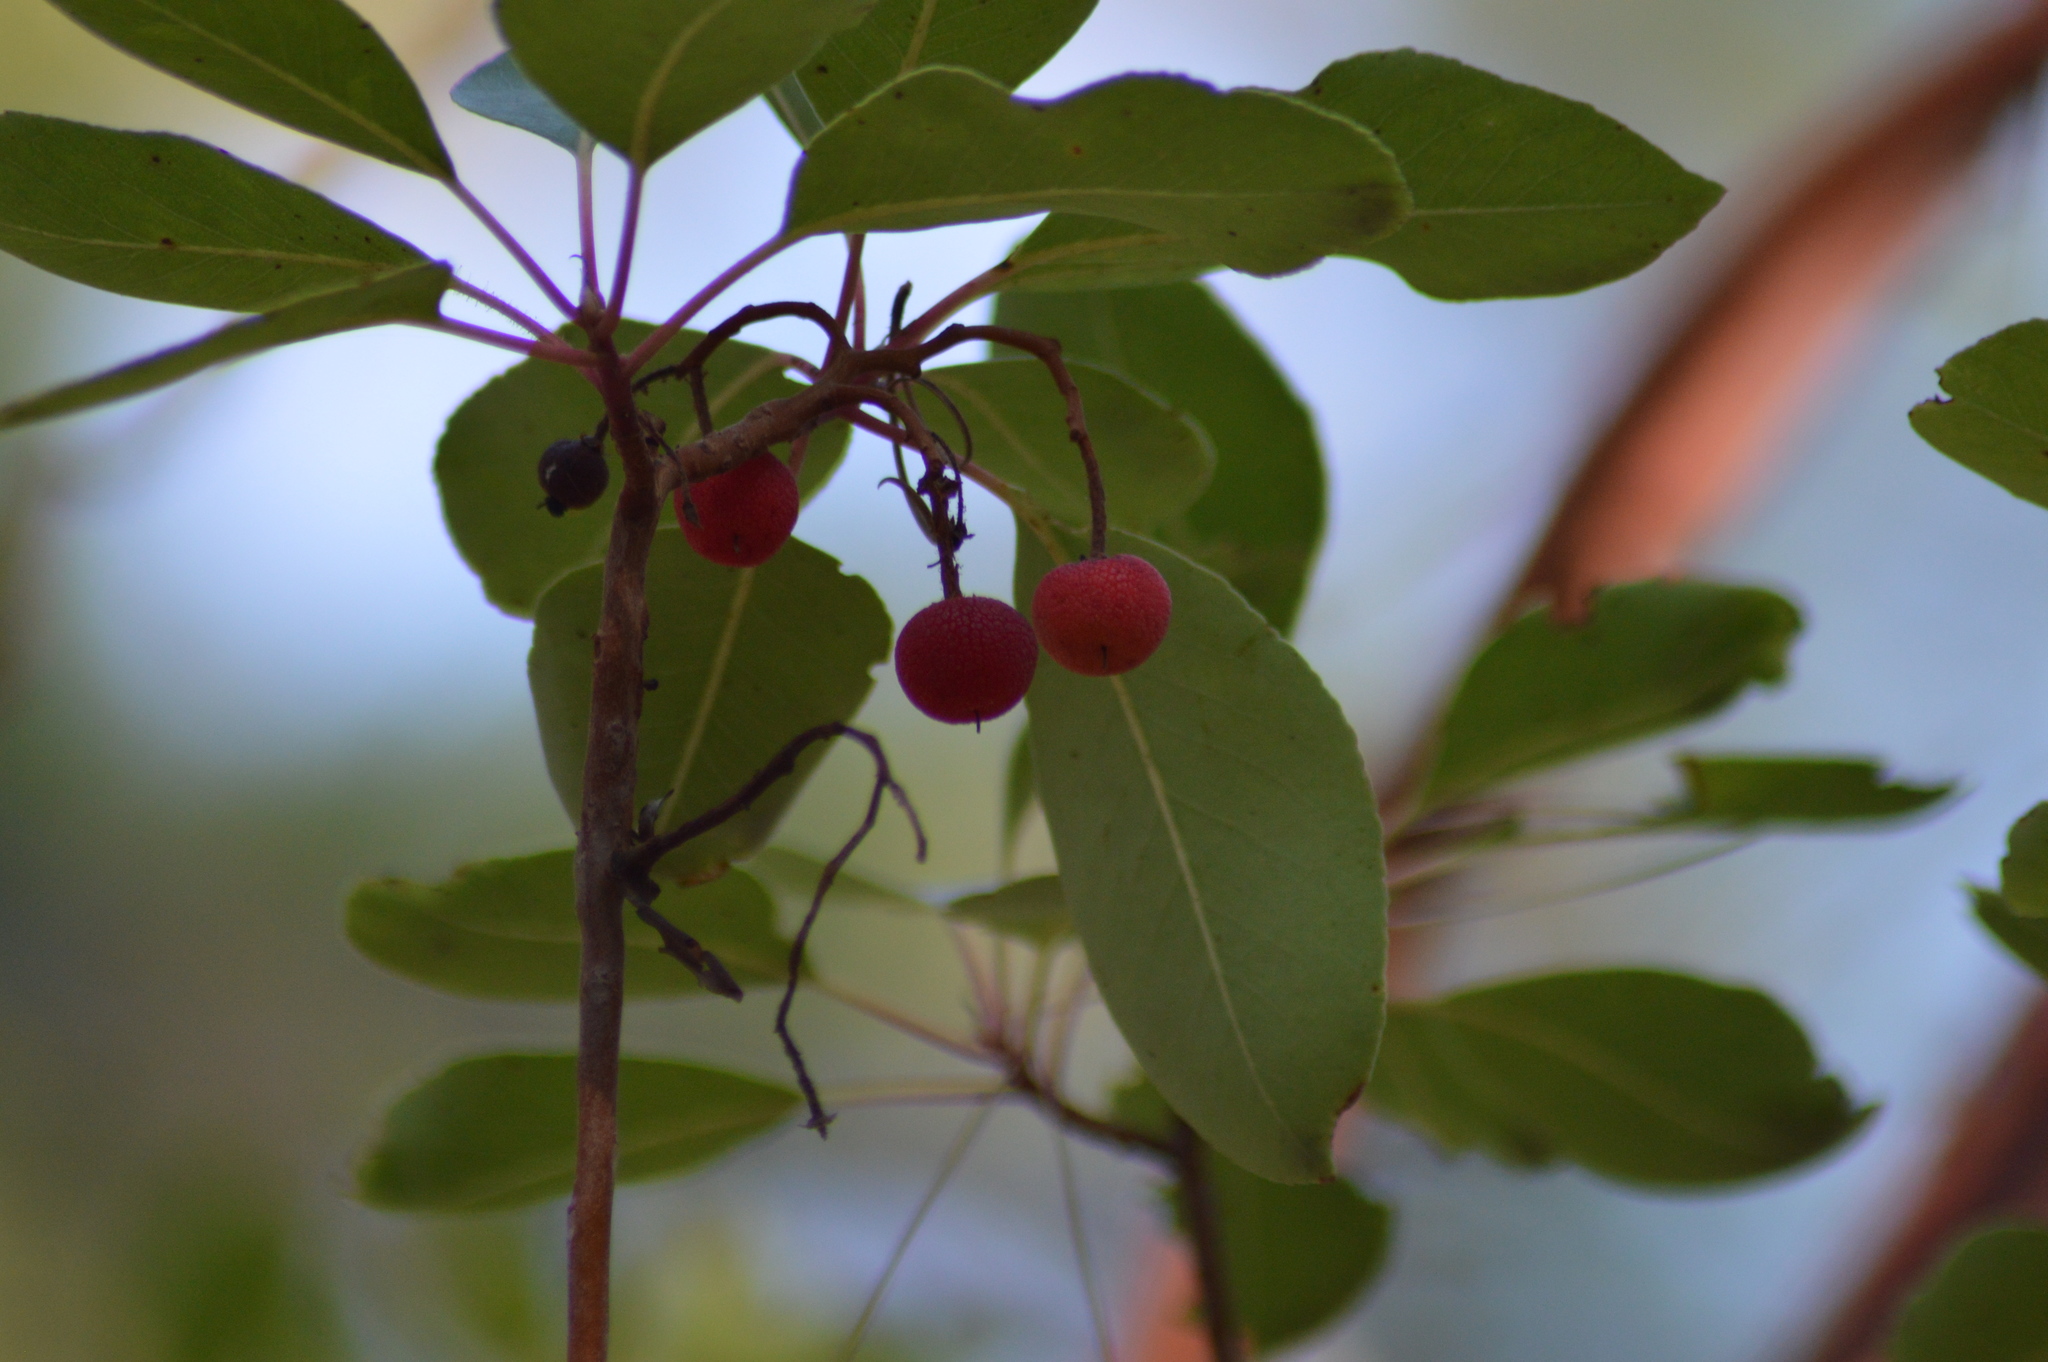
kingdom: Plantae
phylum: Tracheophyta
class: Magnoliopsida
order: Ericales
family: Ericaceae
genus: Arbutus
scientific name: Arbutus andrachne
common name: Greek strawberry tree
